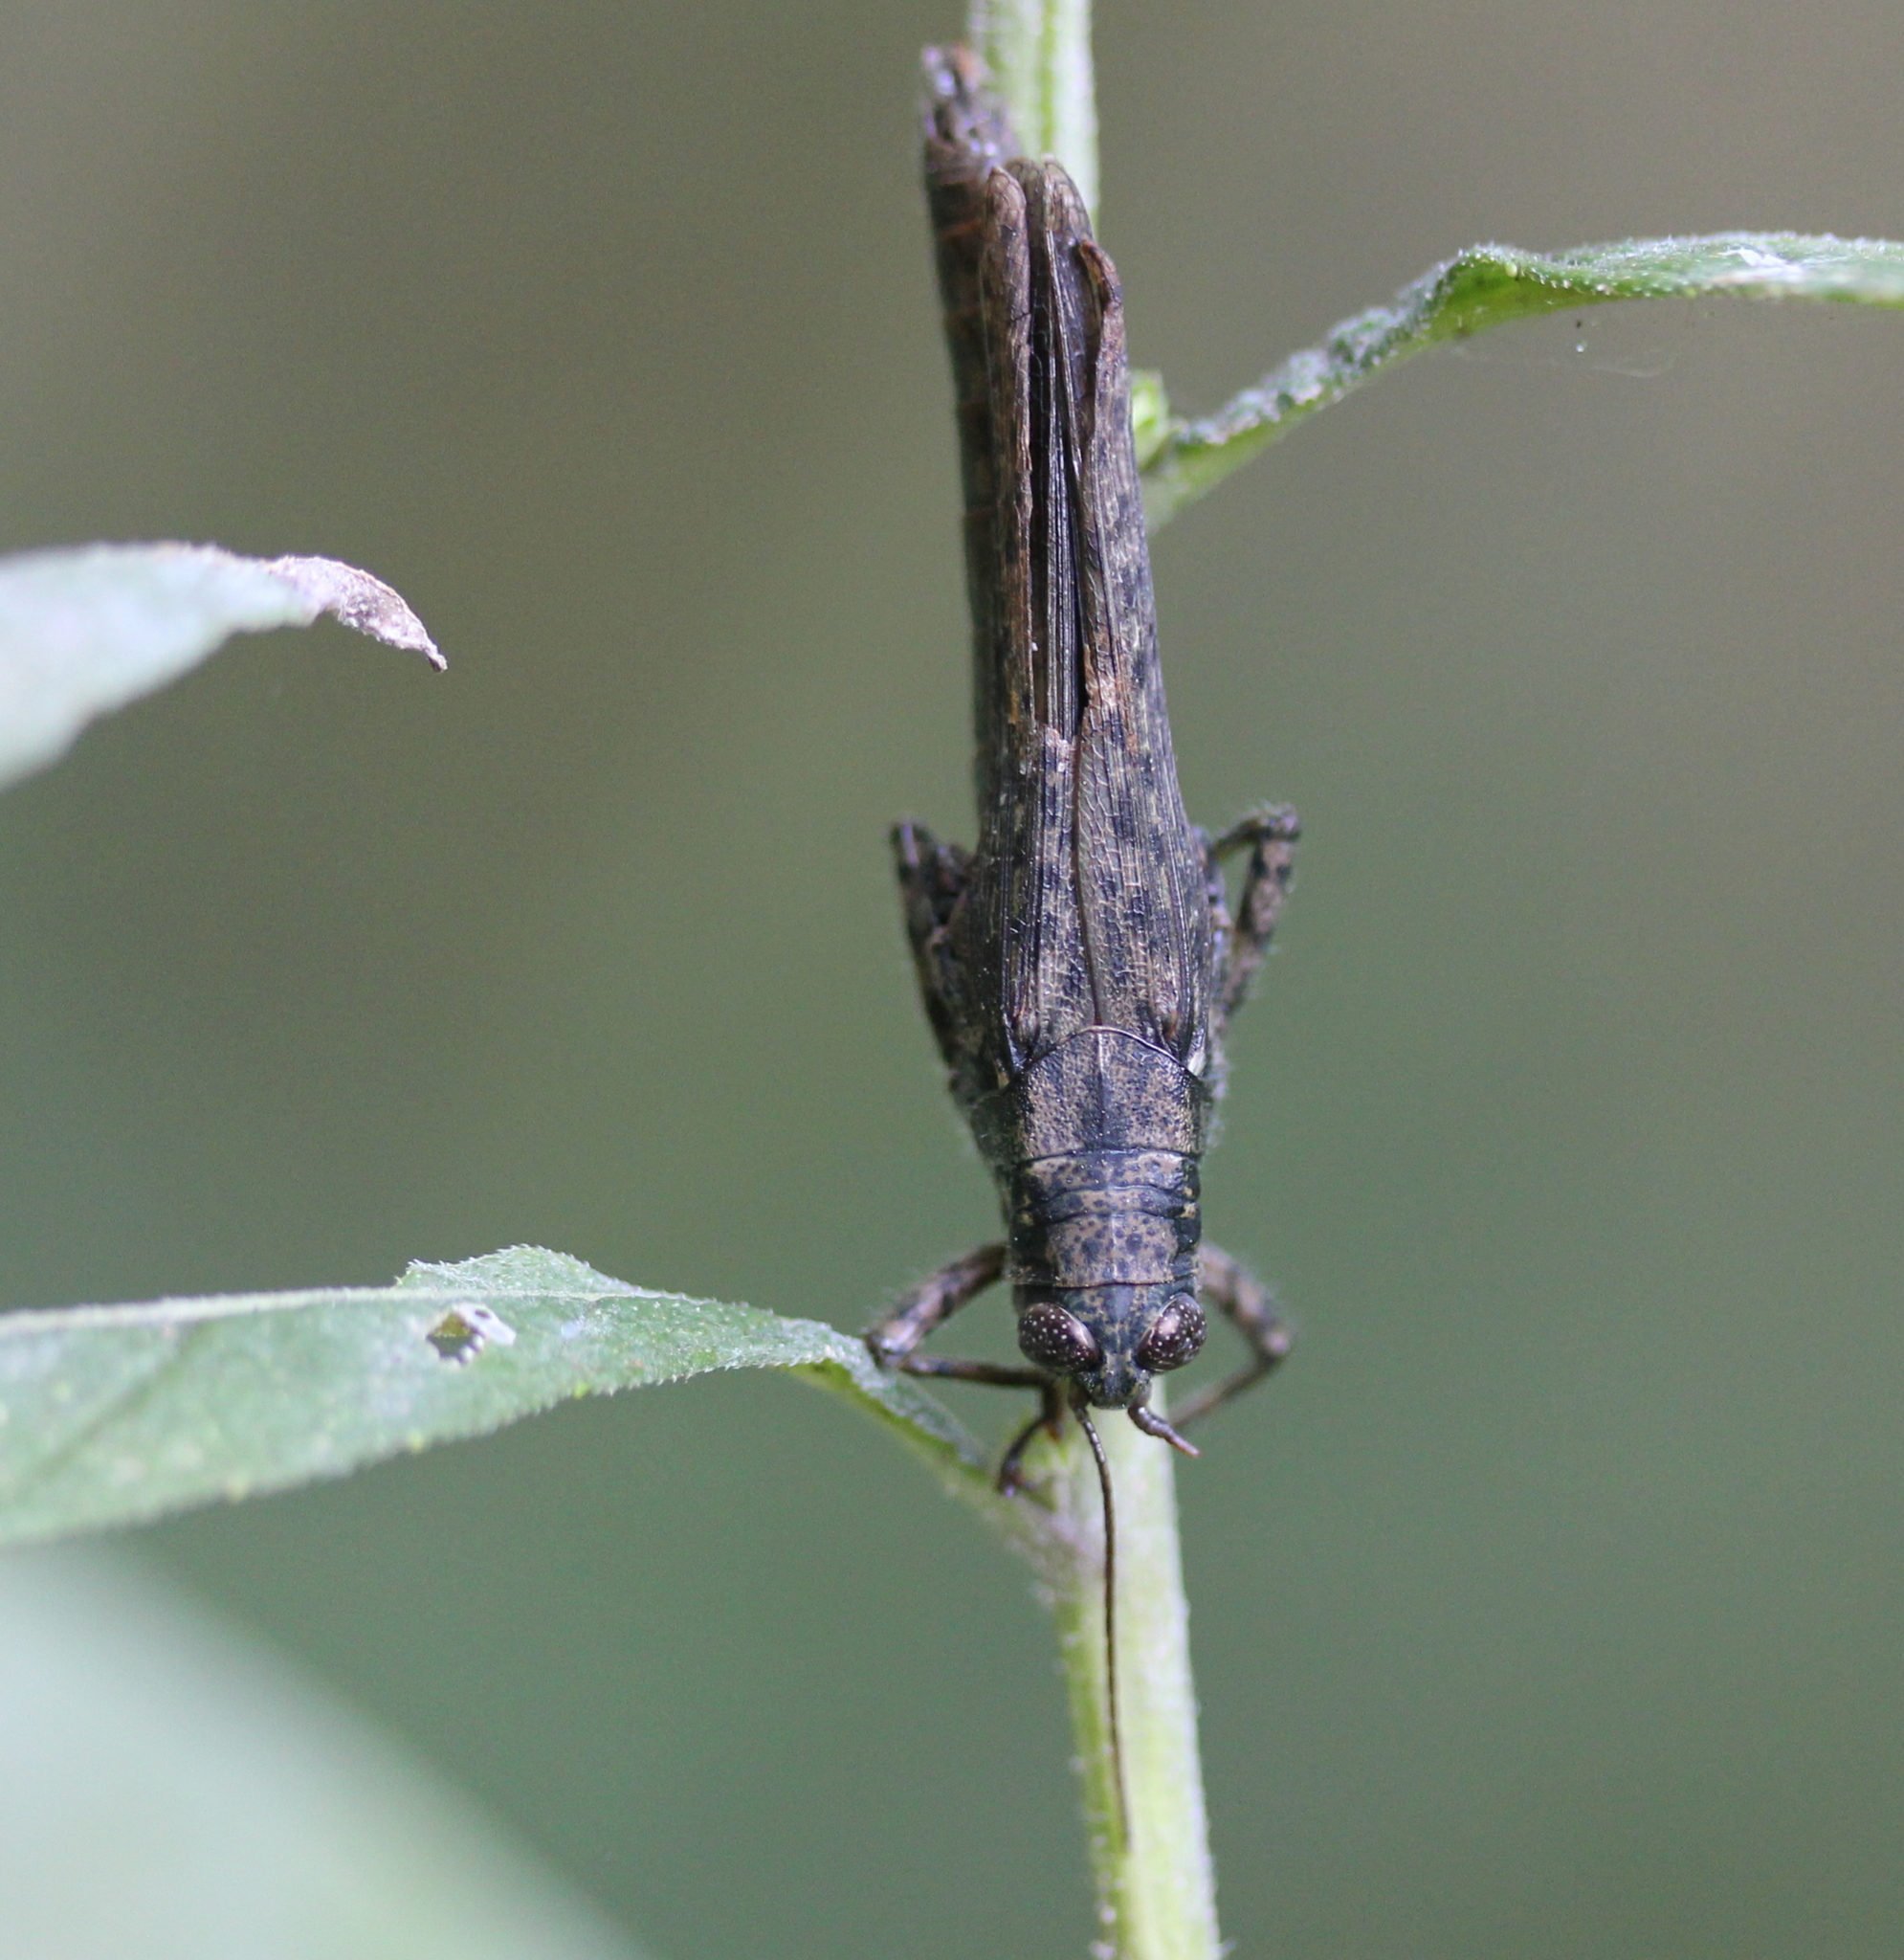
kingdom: Animalia
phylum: Arthropoda
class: Insecta
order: Orthoptera
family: Acrididae
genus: Melanoplus
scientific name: Melanoplus punctulatus
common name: Pine-tree spur-throat grasshopper
